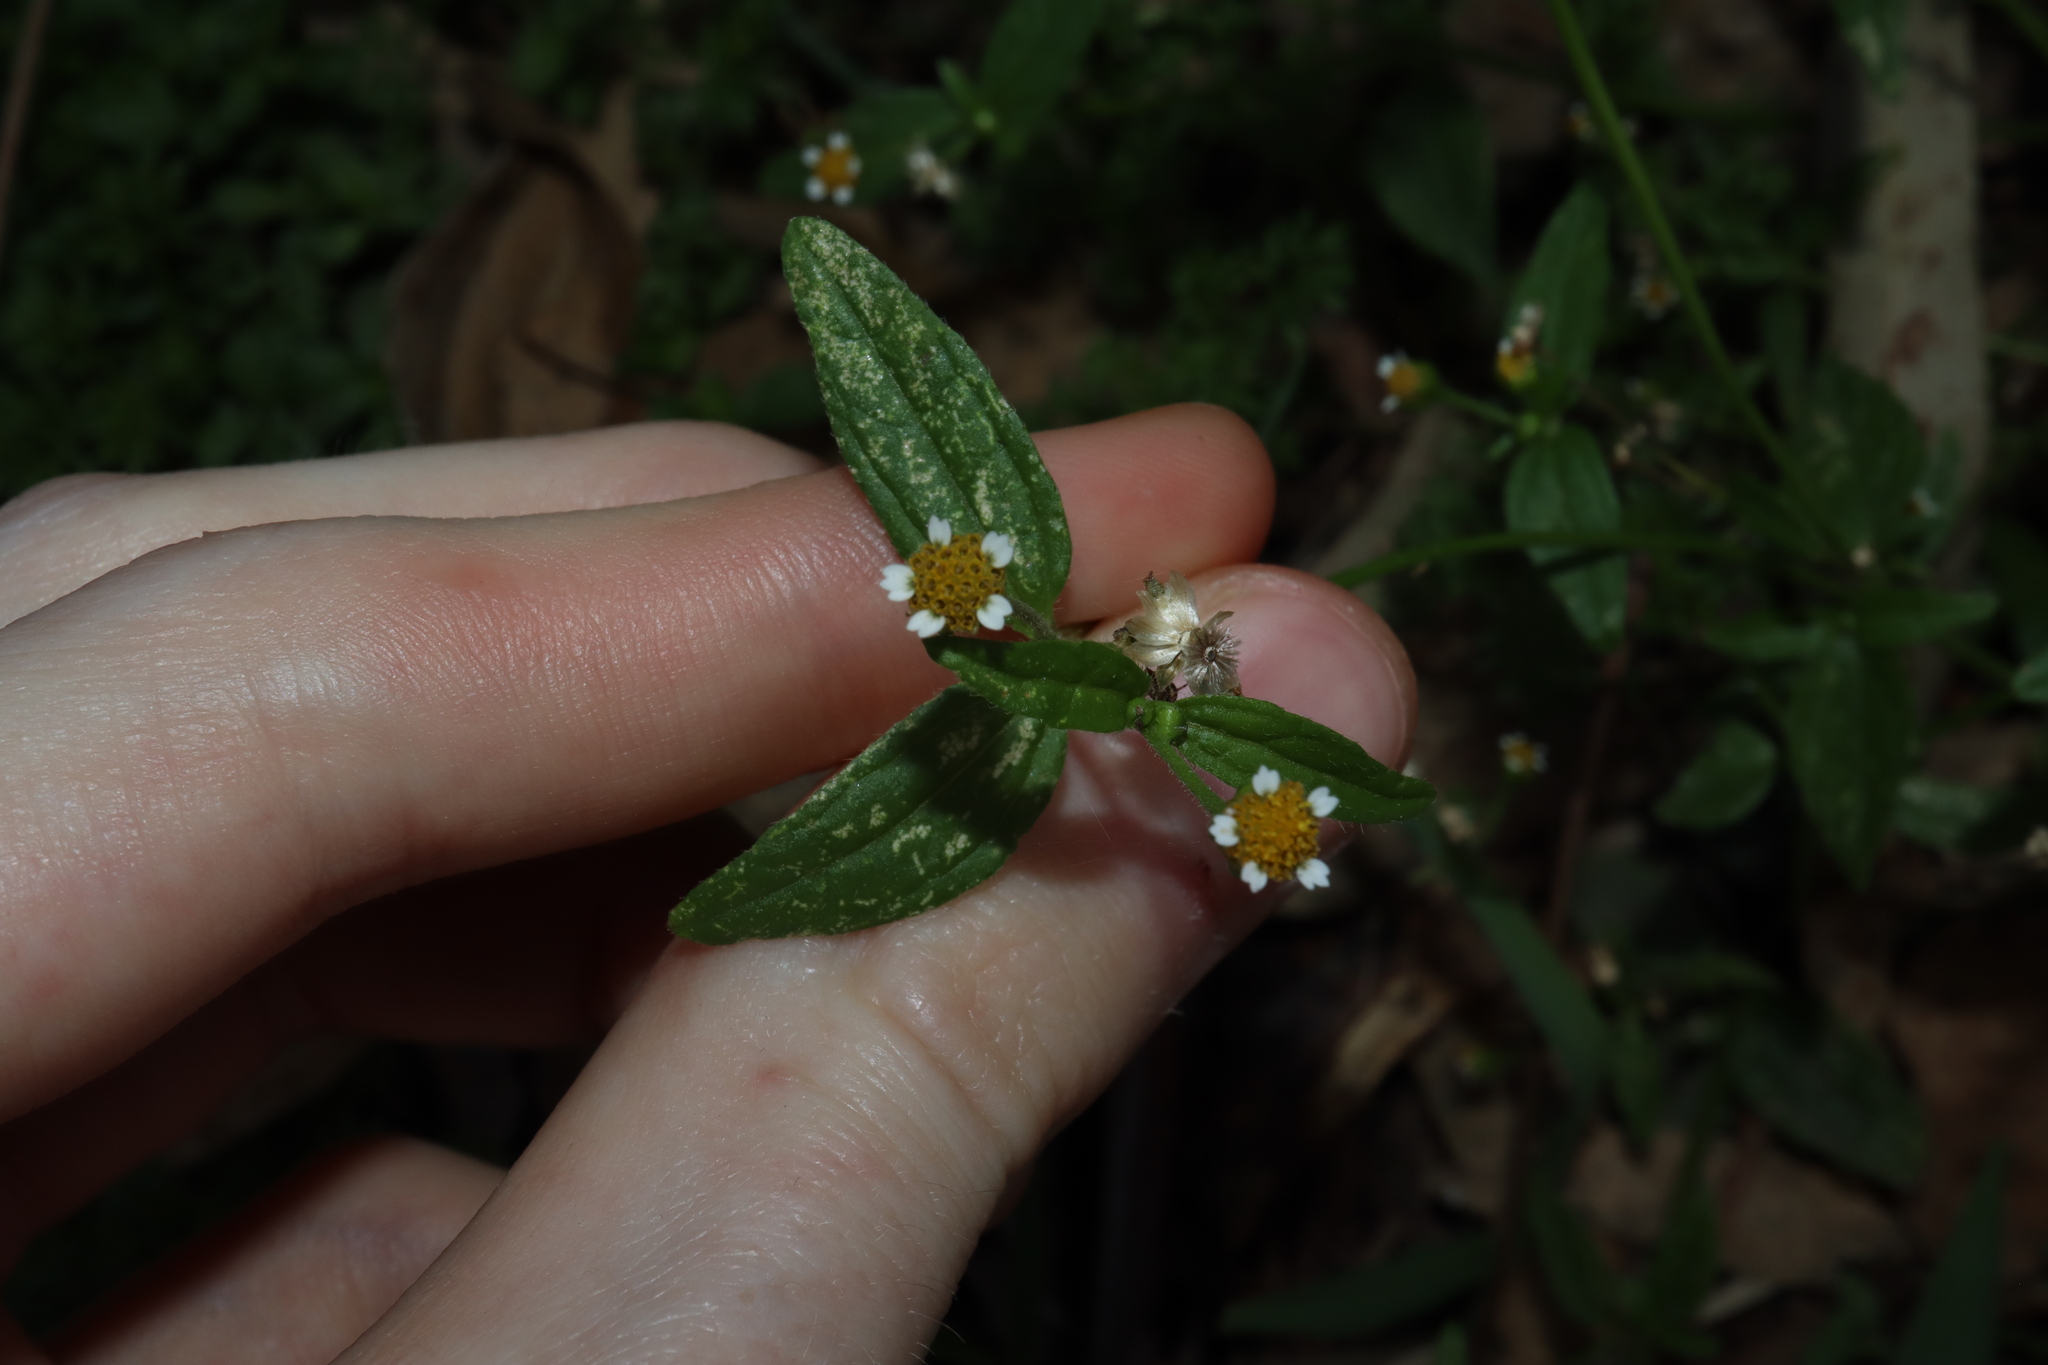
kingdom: Plantae
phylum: Tracheophyta
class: Magnoliopsida
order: Asterales
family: Asteraceae
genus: Galinsoga
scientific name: Galinsoga parviflora
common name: Gallant soldier
